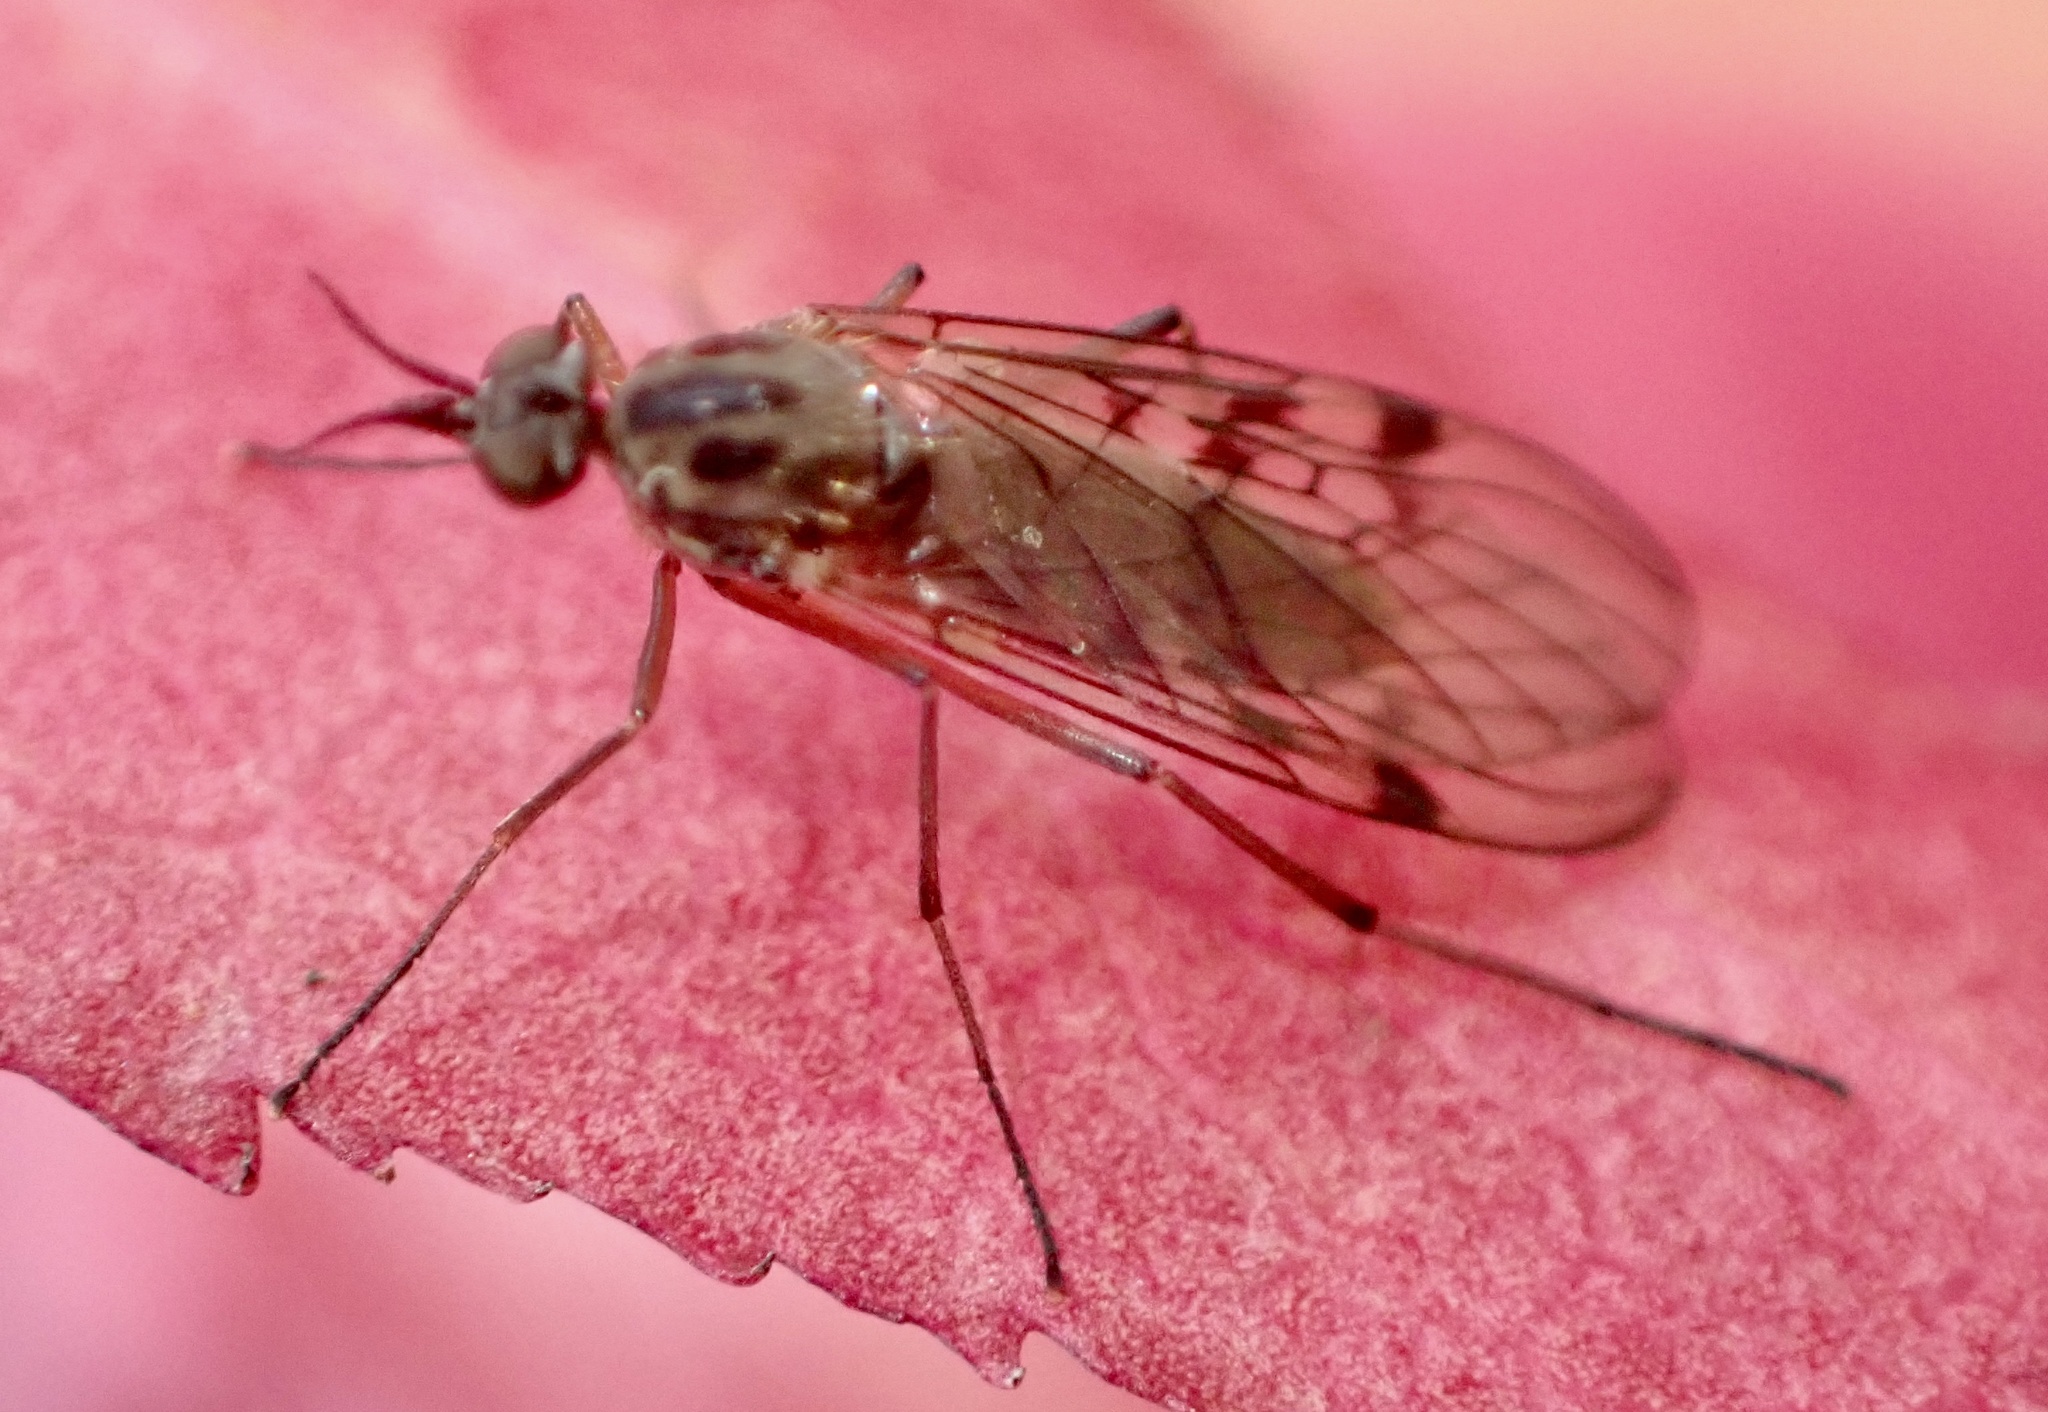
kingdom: Animalia
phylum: Arthropoda
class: Insecta
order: Diptera
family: Anisopodidae
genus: Sylvicola
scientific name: Sylvicola punctatus
